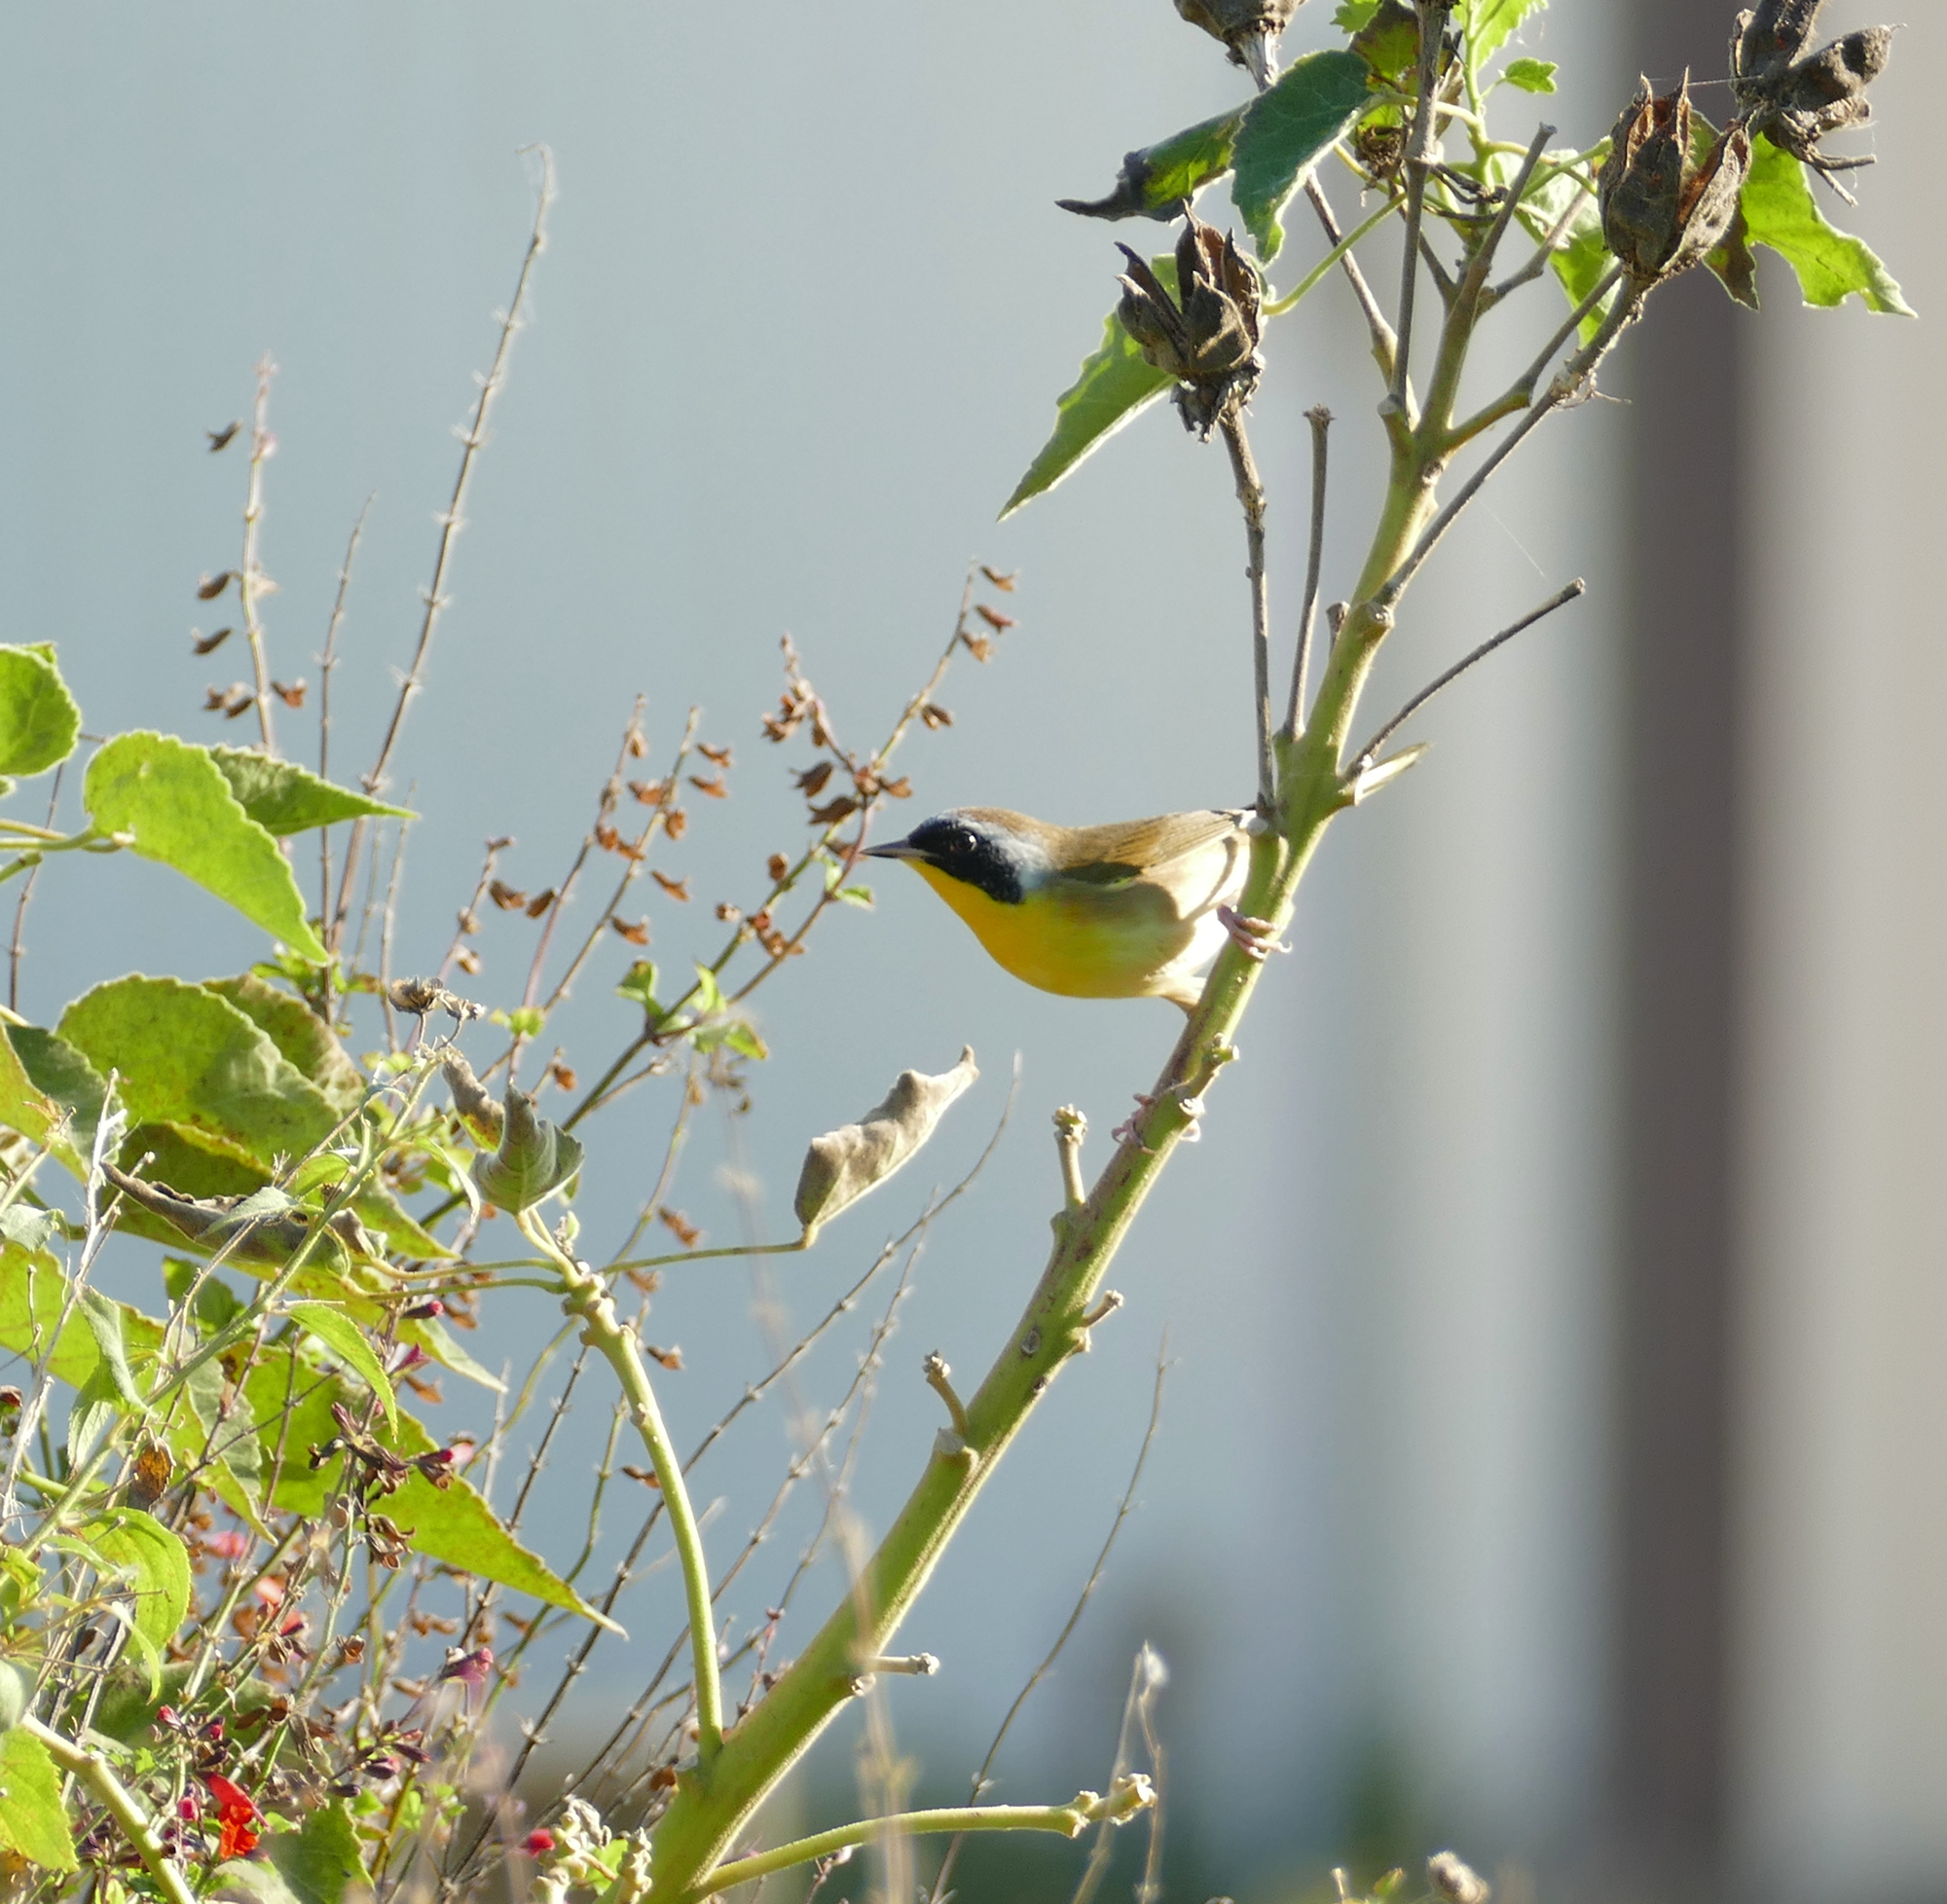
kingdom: Animalia
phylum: Chordata
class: Aves
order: Passeriformes
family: Parulidae
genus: Geothlypis
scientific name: Geothlypis trichas
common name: Common yellowthroat
